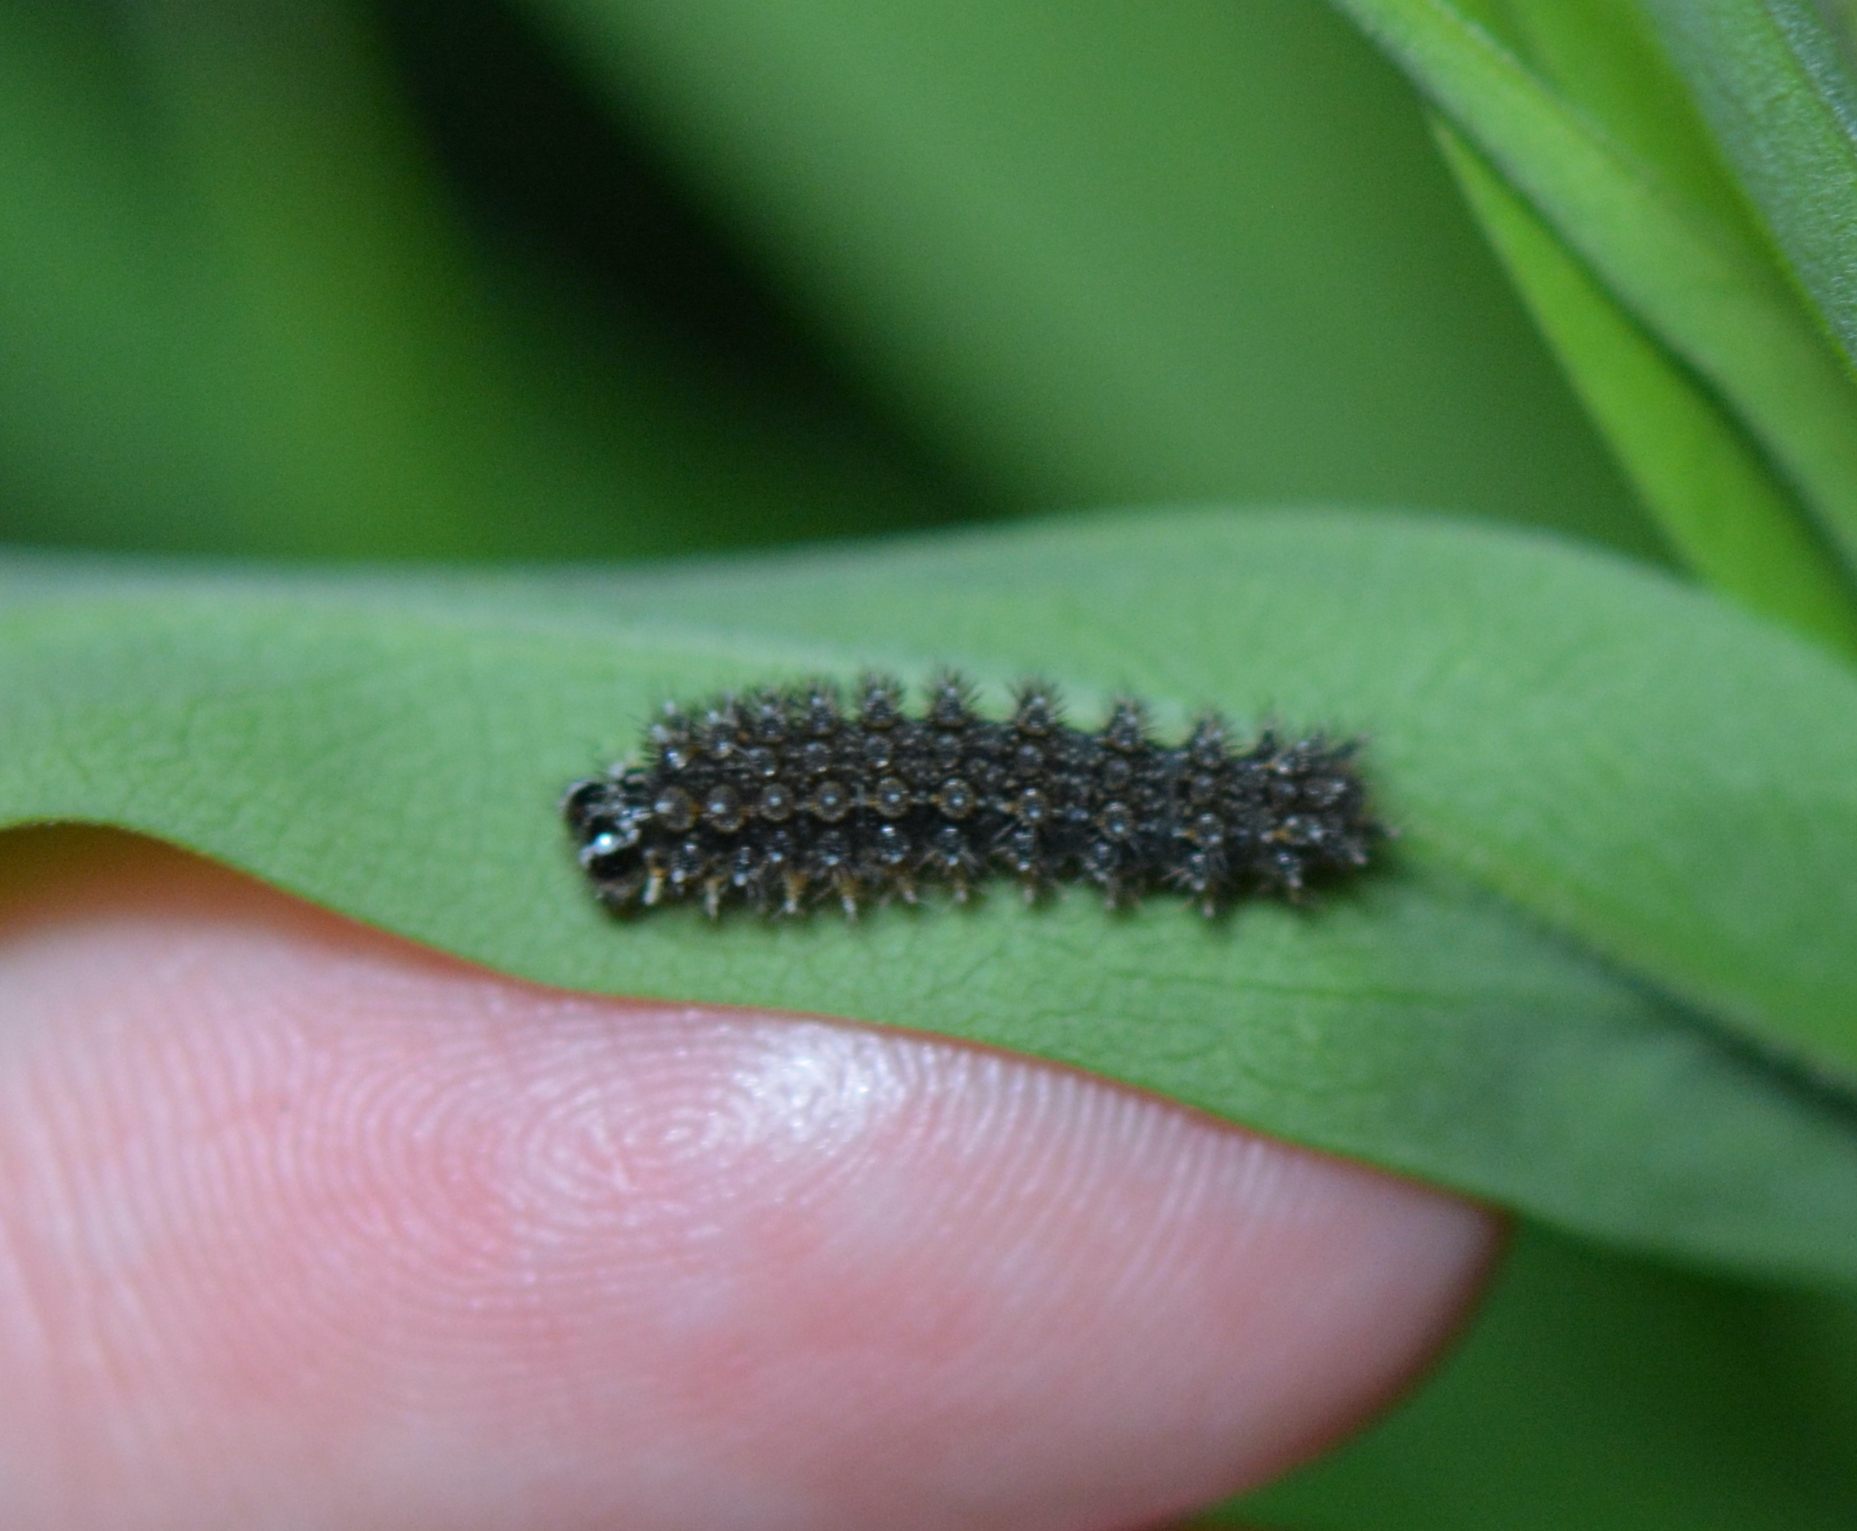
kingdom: Animalia
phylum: Arthropoda
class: Insecta
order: Lepidoptera
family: Nymphalidae
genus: Chlosyne
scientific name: Chlosyne nycteis
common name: Silvery checkerspot
